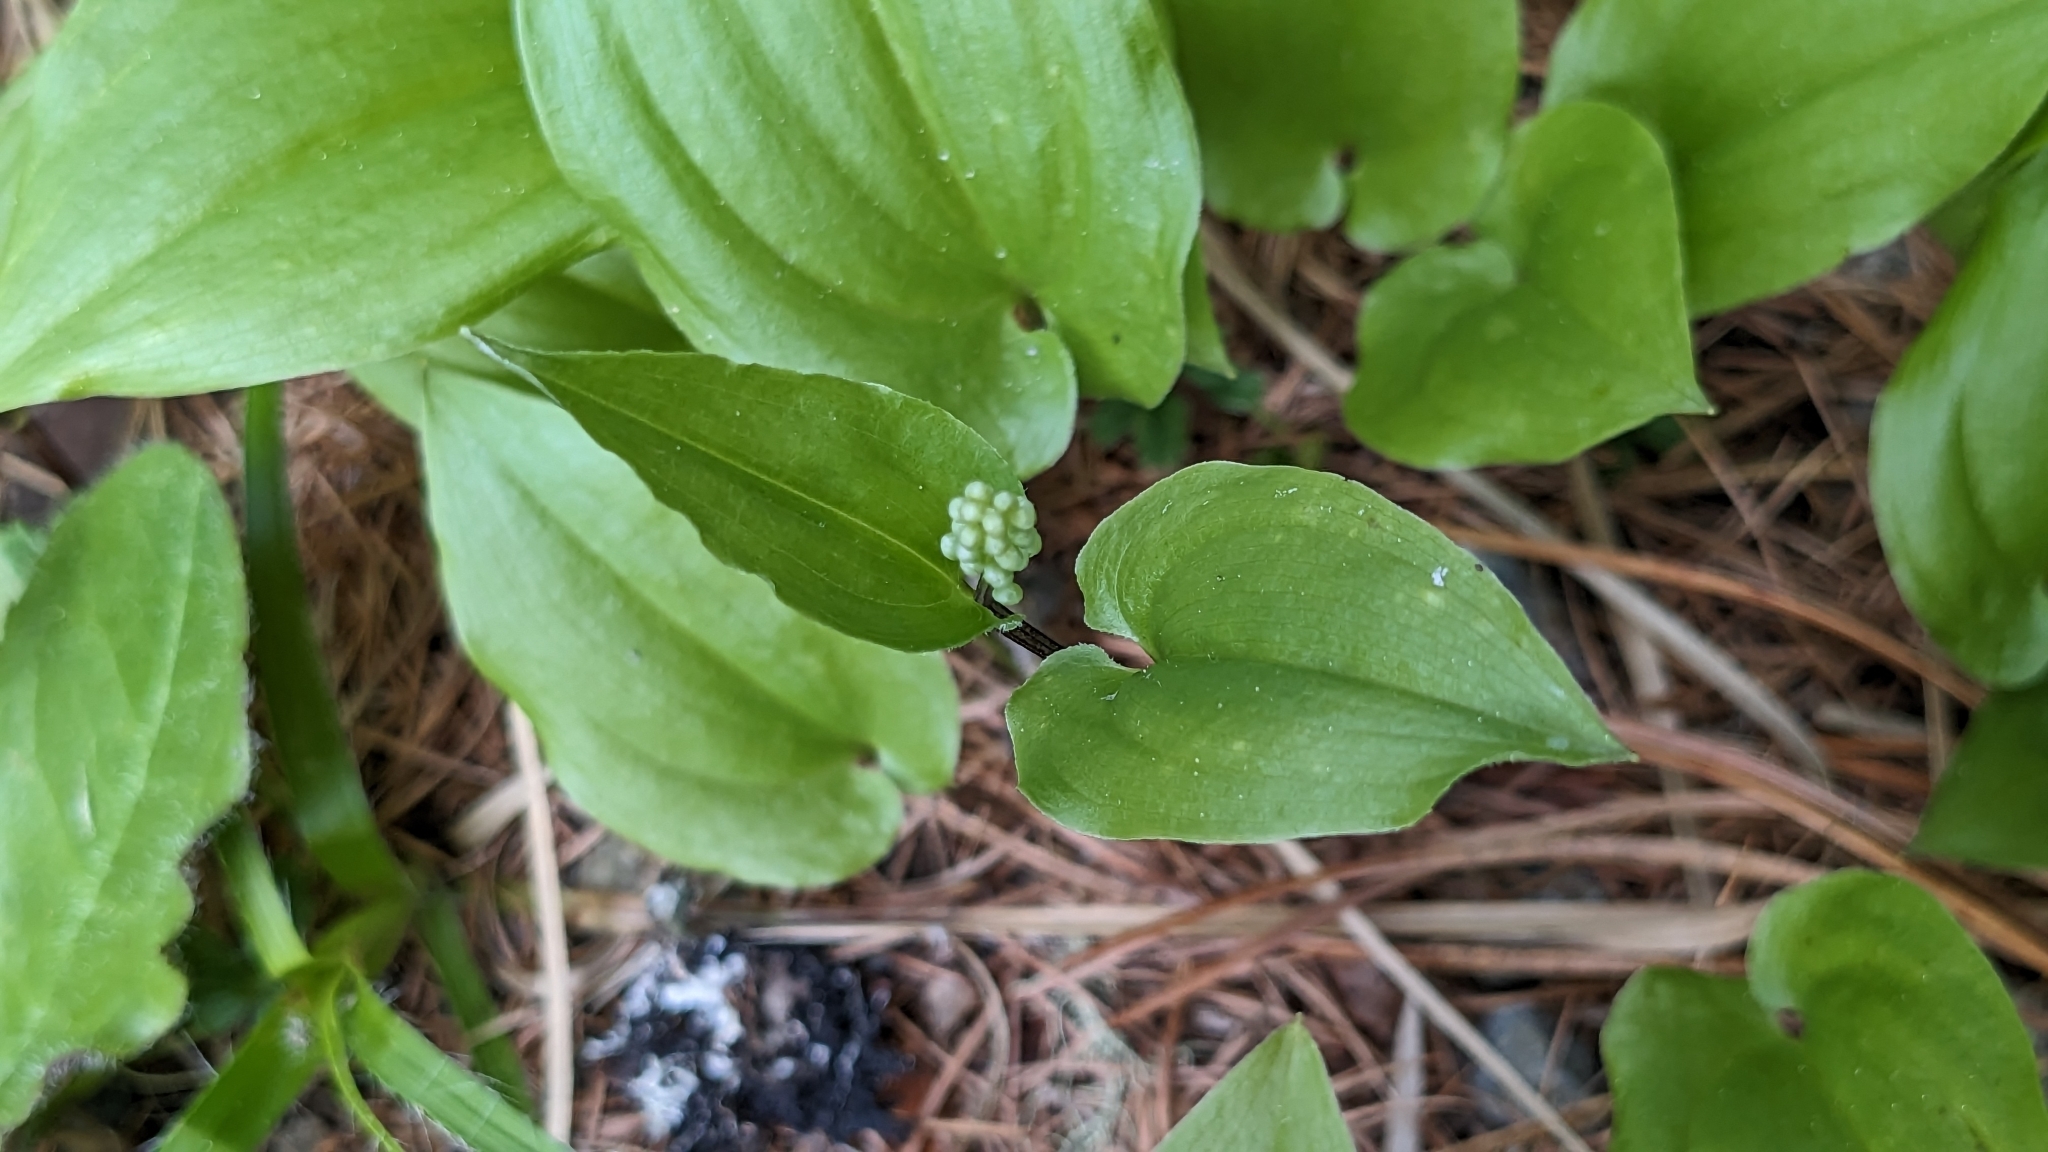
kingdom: Plantae
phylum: Tracheophyta
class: Liliopsida
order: Asparagales
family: Asparagaceae
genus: Maianthemum
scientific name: Maianthemum bifolium
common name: May lily
